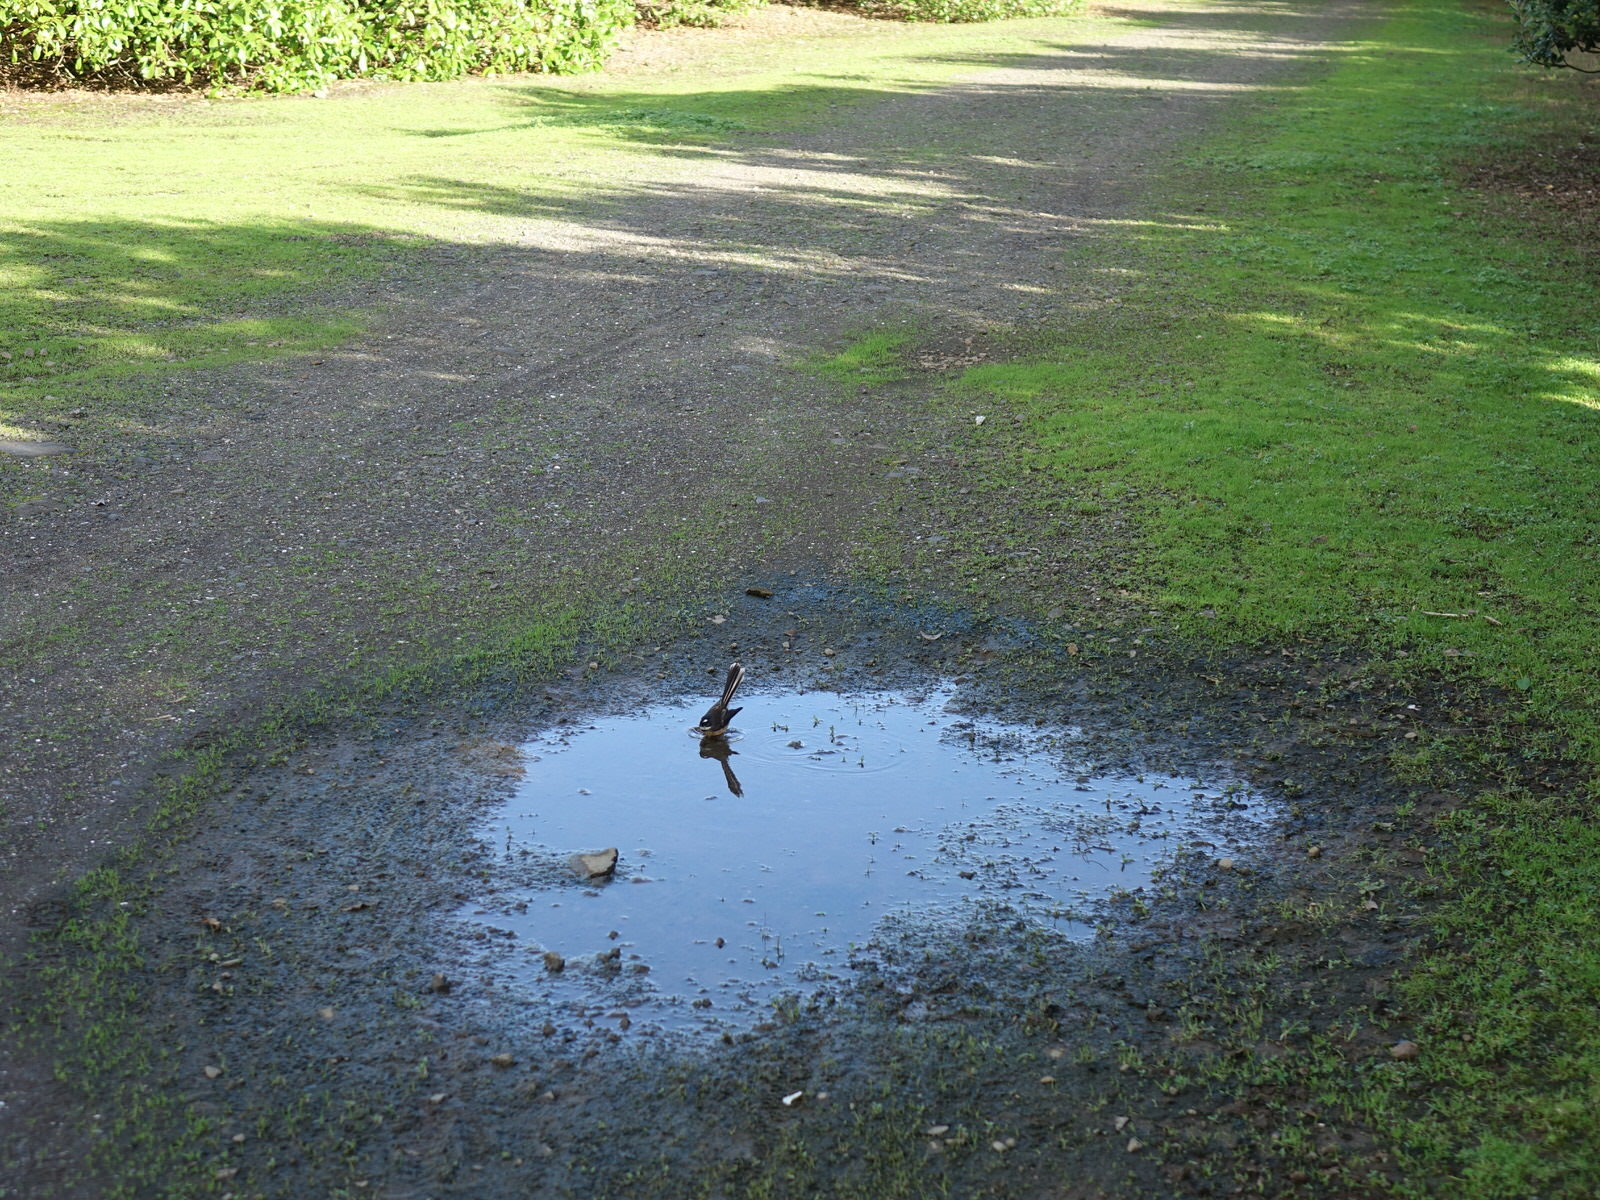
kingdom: Animalia
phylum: Chordata
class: Aves
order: Passeriformes
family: Rhipiduridae
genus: Rhipidura
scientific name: Rhipidura fuliginosa
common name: New zealand fantail
